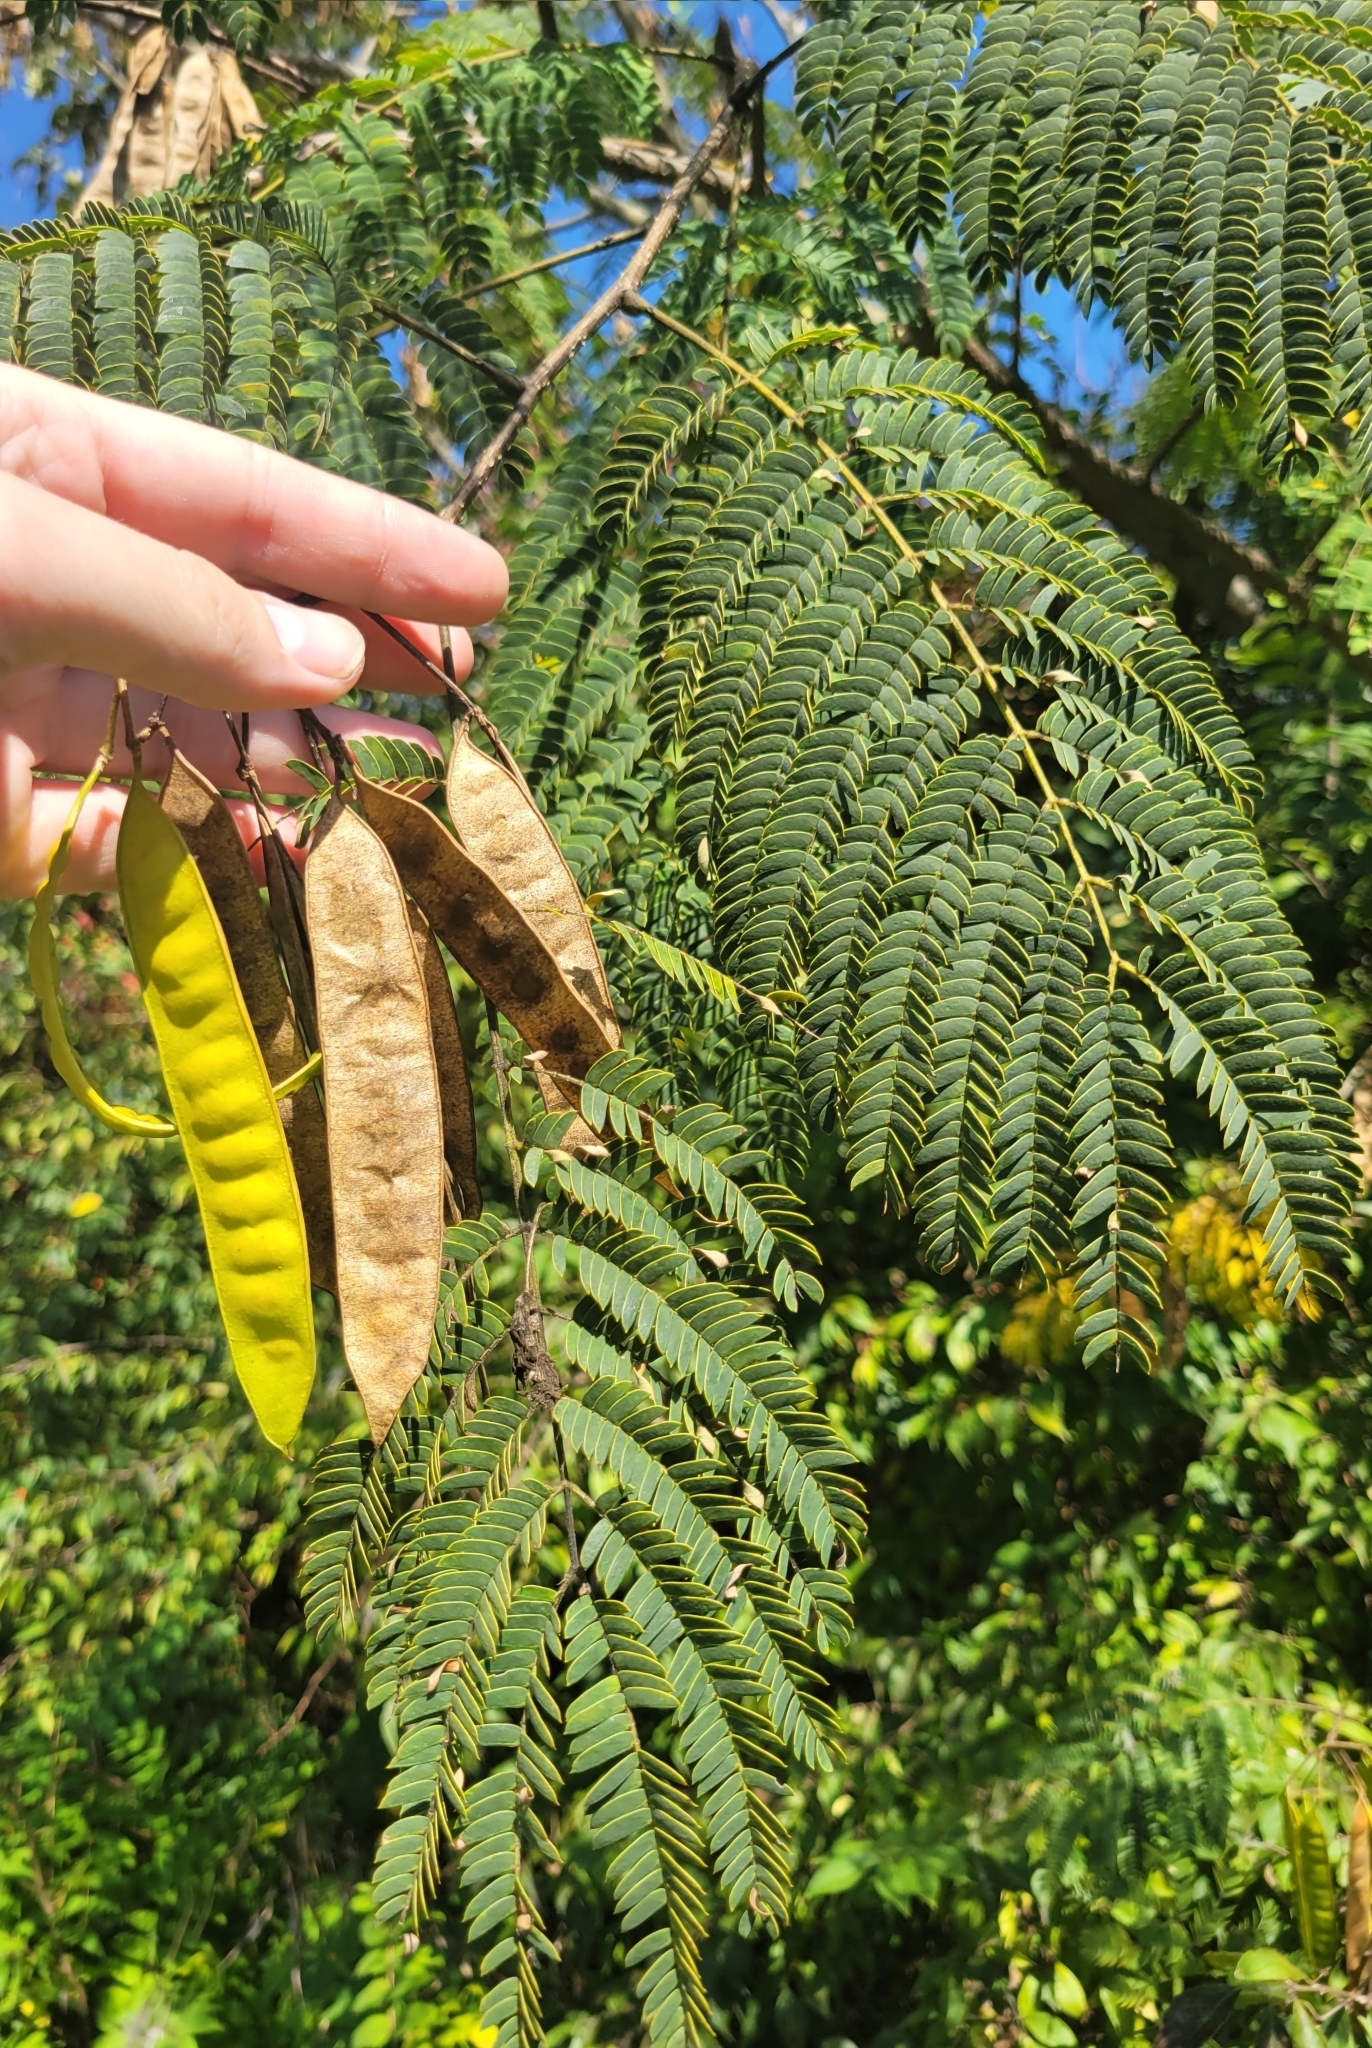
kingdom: Plantae
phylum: Tracheophyta
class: Magnoliopsida
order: Fabales
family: Fabaceae
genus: Albizia
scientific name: Albizia julibrissin
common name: Silktree
